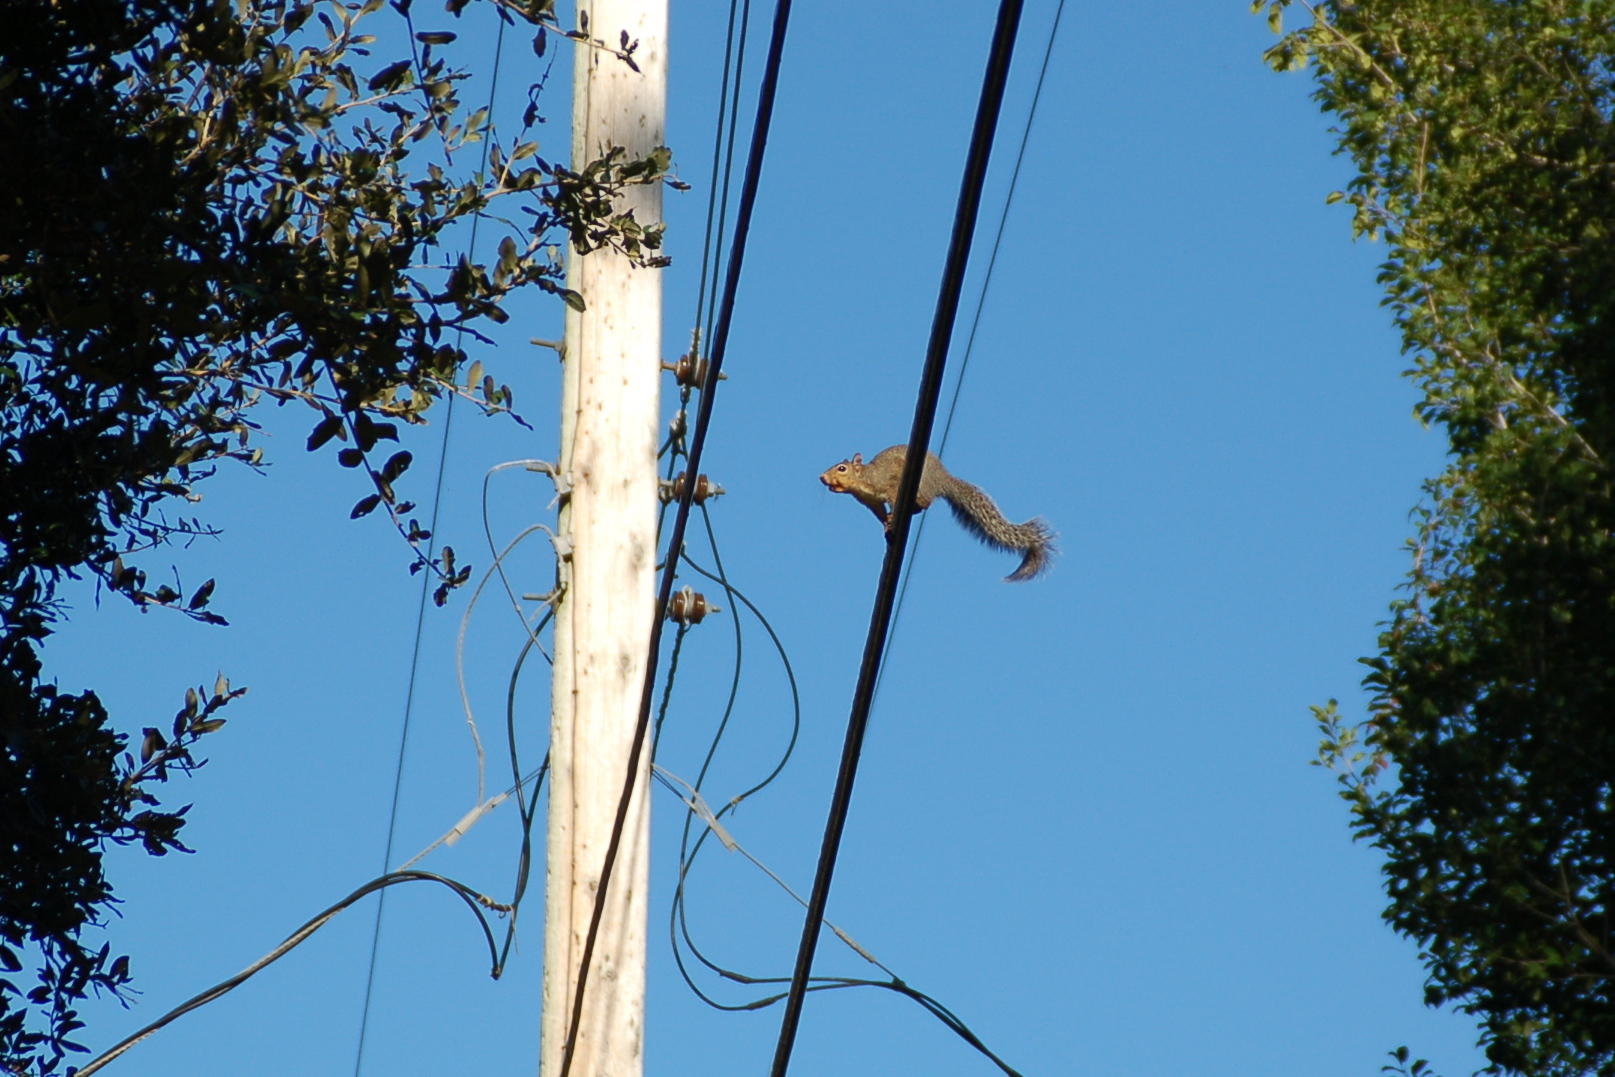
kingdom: Animalia
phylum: Chordata
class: Mammalia
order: Rodentia
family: Sciuridae
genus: Sciurus
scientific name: Sciurus carolinensis
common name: Eastern gray squirrel
